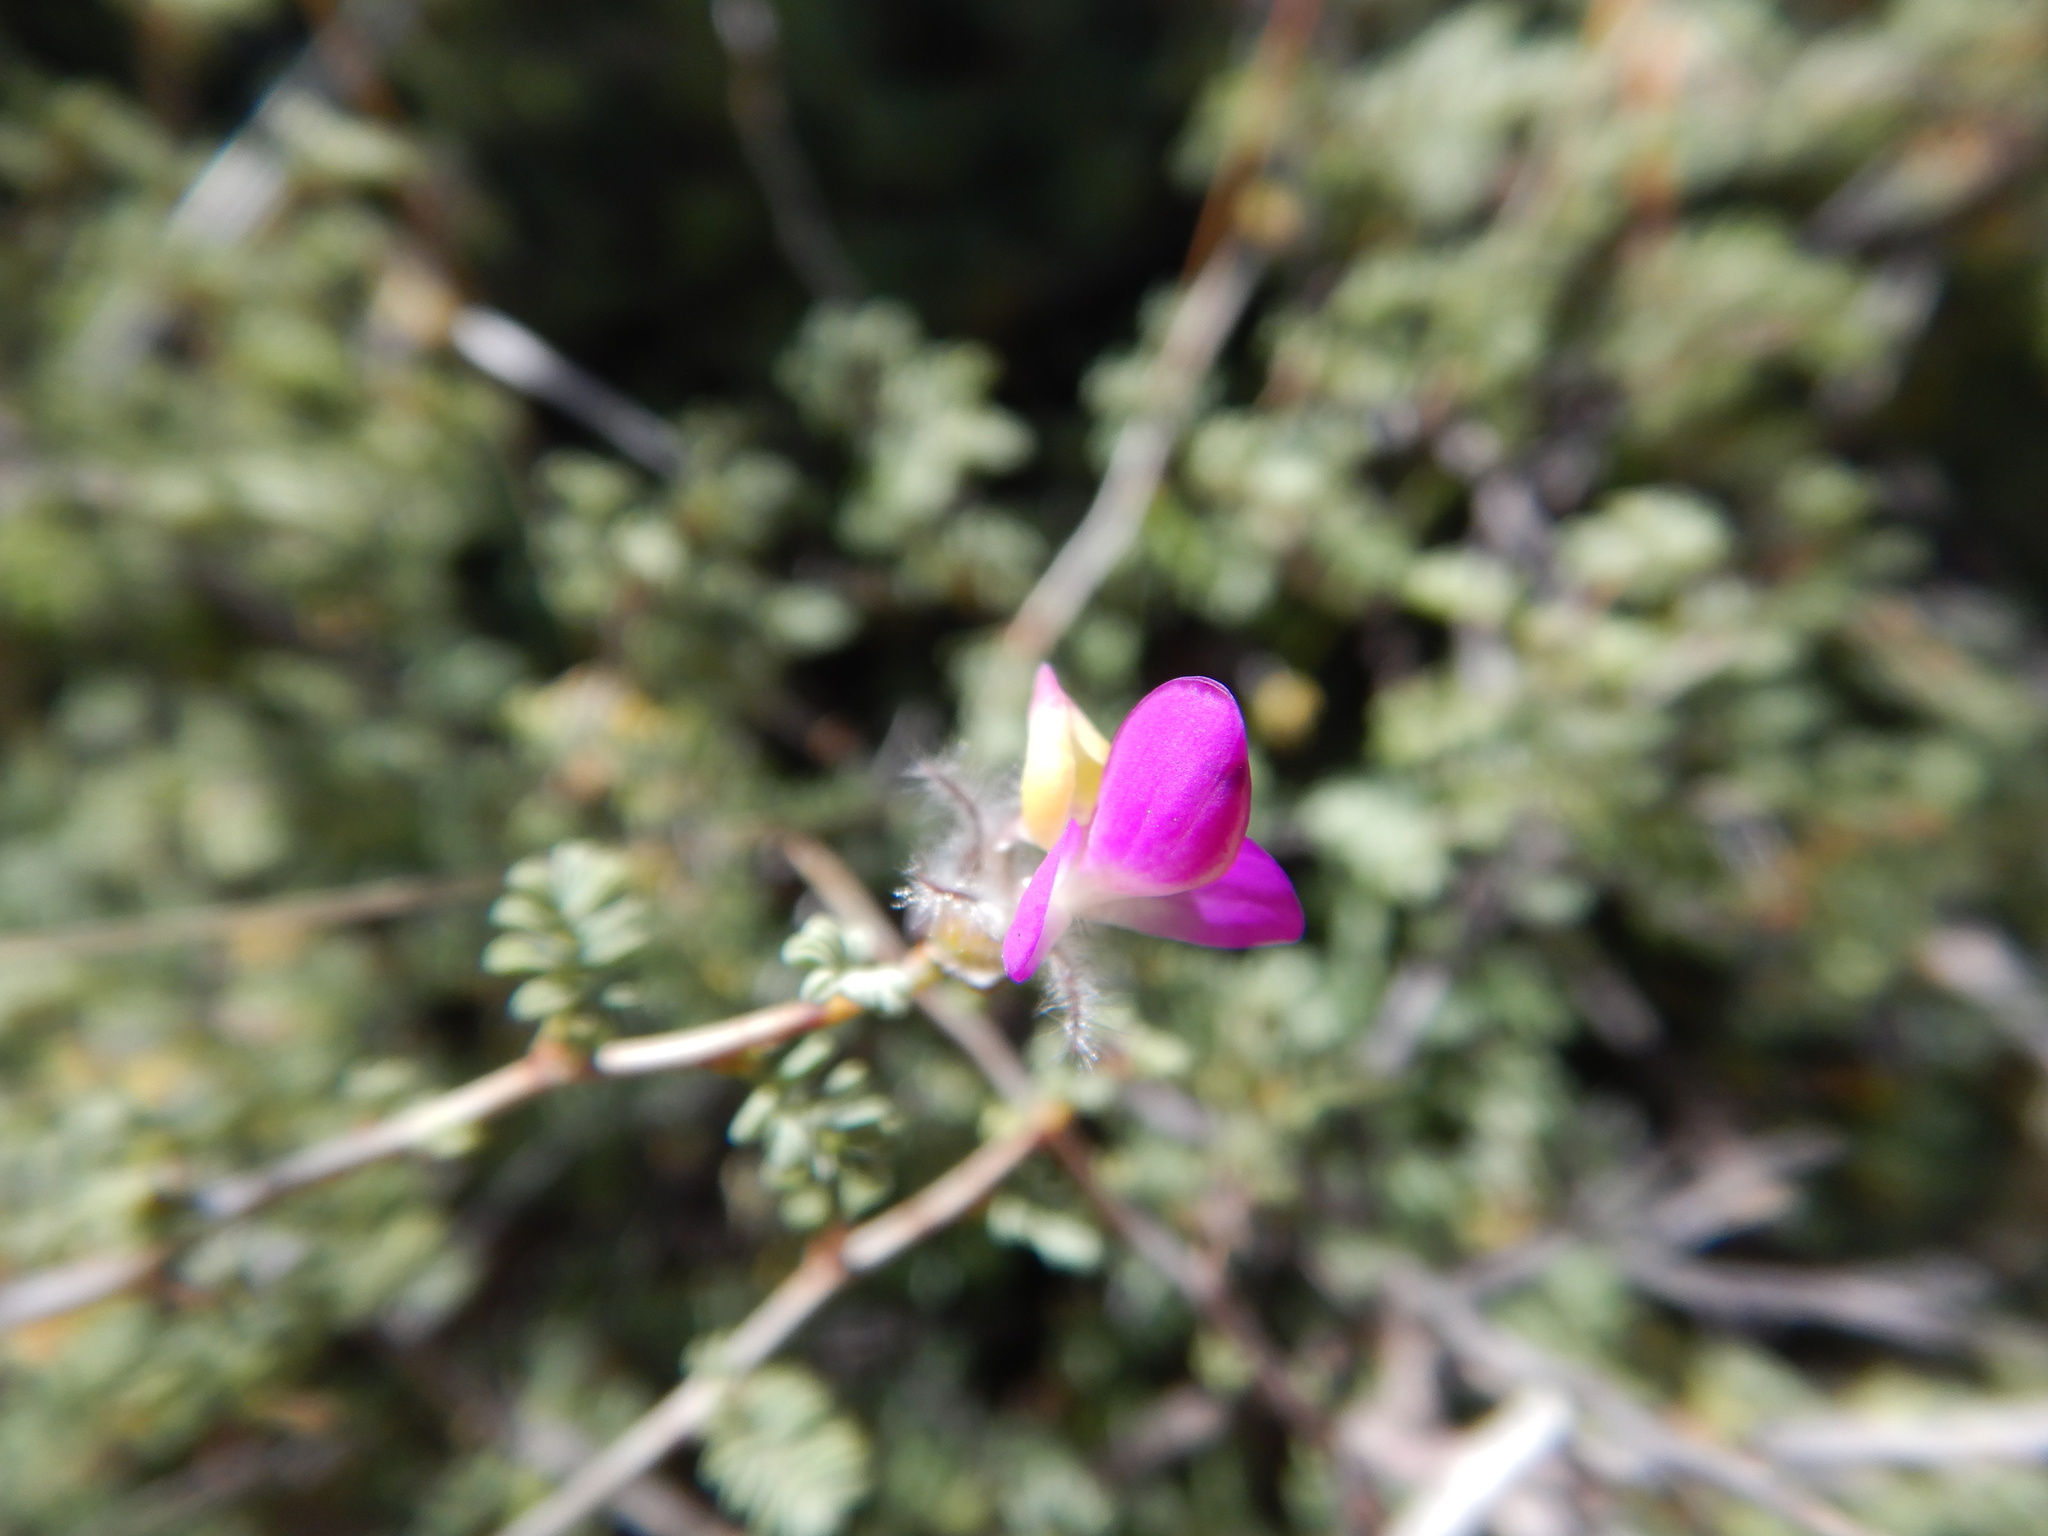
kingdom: Plantae
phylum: Tracheophyta
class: Magnoliopsida
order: Fabales
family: Fabaceae
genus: Dalea
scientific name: Dalea formosa
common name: Feather-plume dalea
